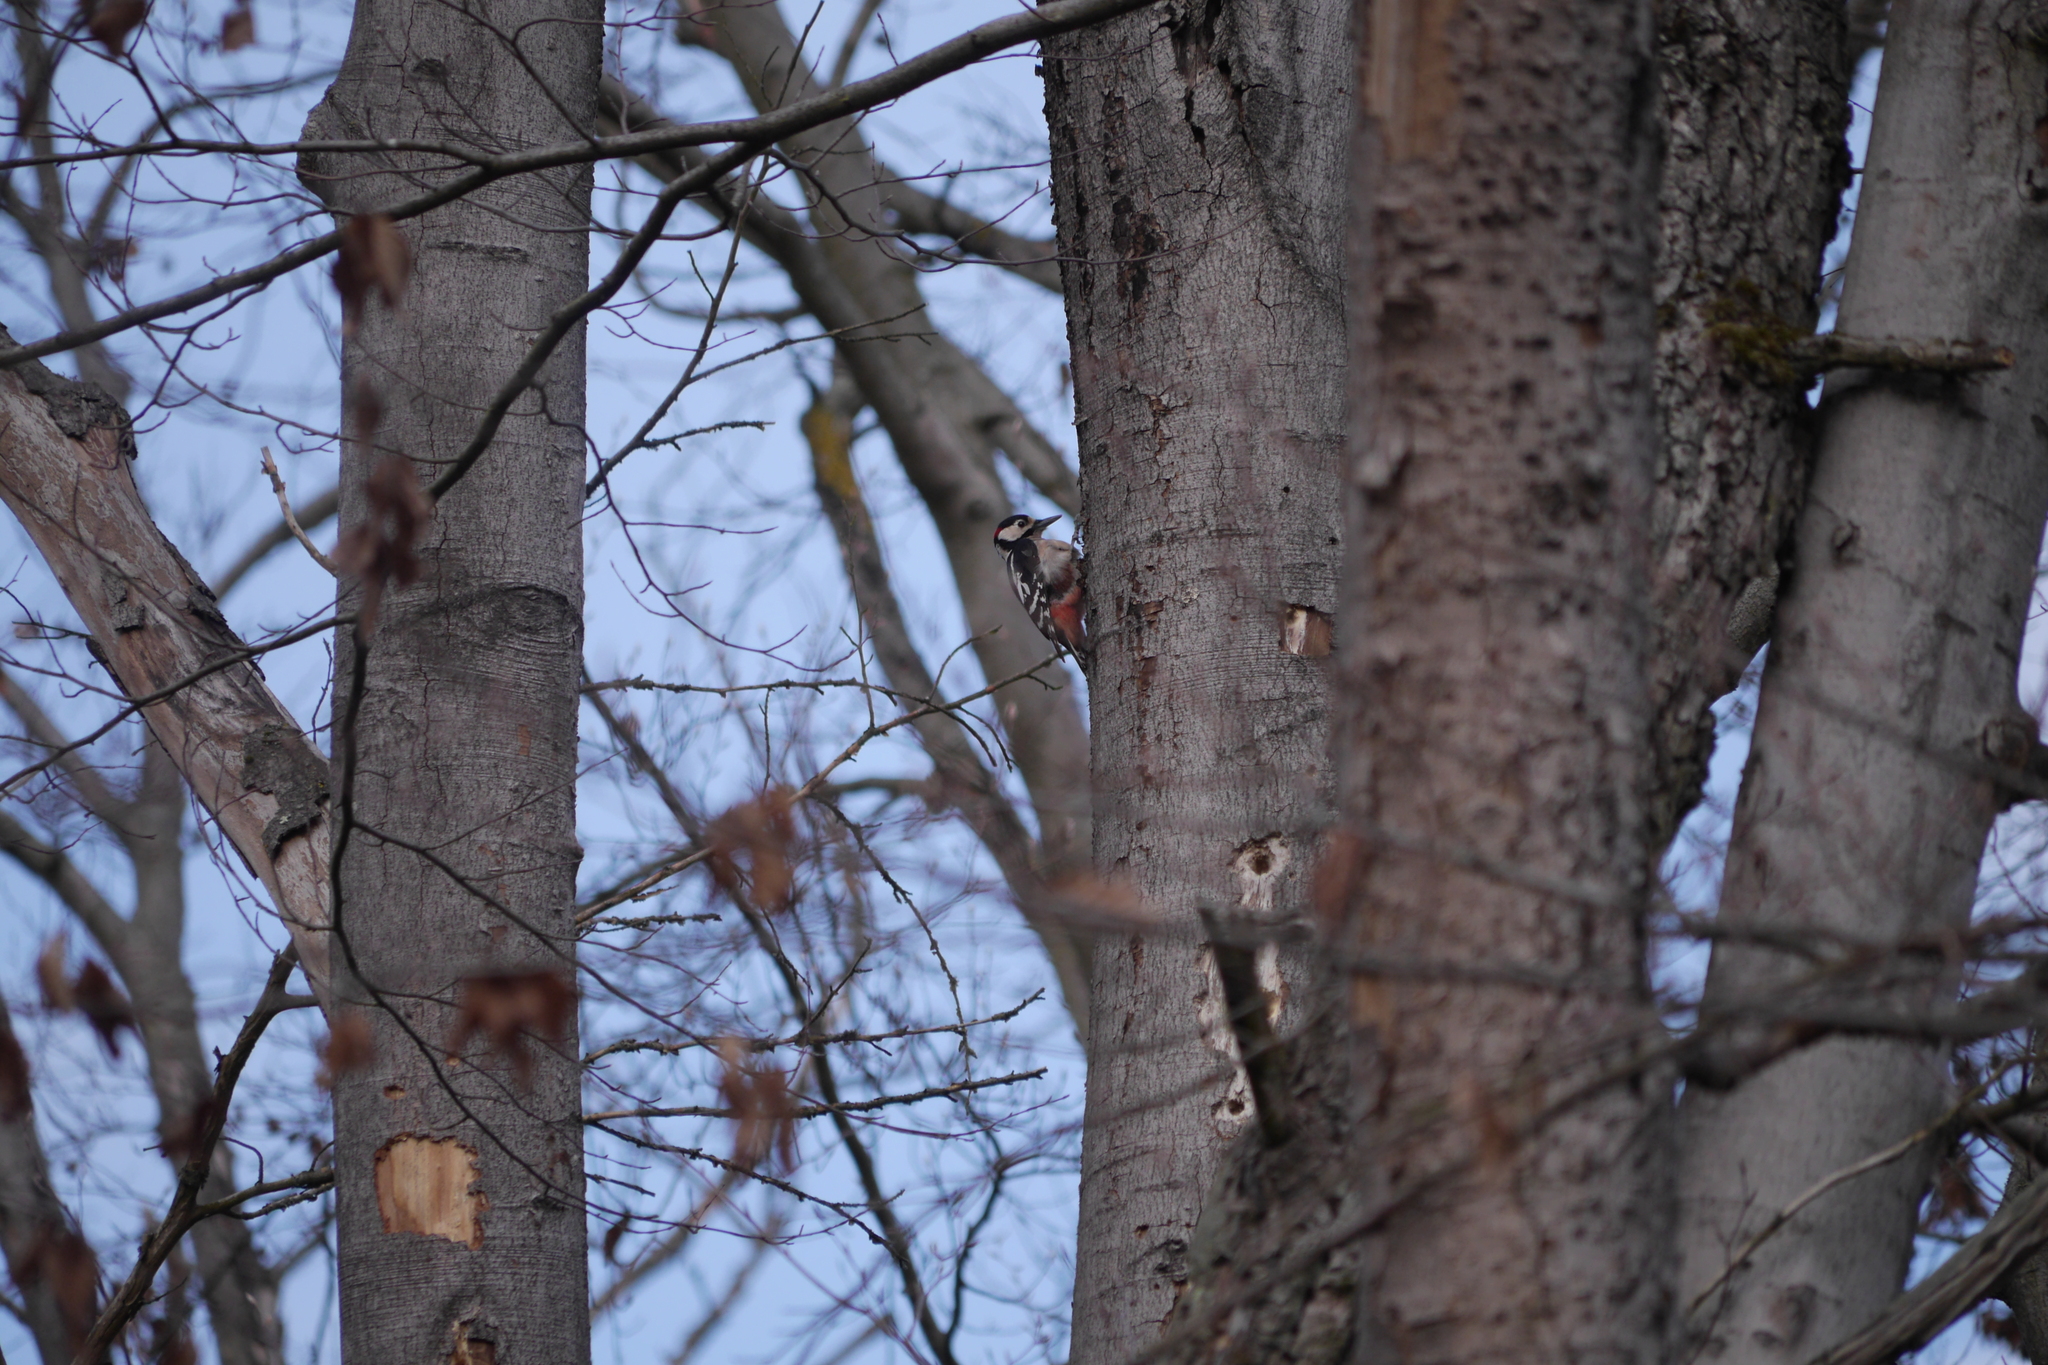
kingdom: Animalia
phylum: Chordata
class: Aves
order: Piciformes
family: Picidae
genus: Dendrocopos
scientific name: Dendrocopos major
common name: Great spotted woodpecker
